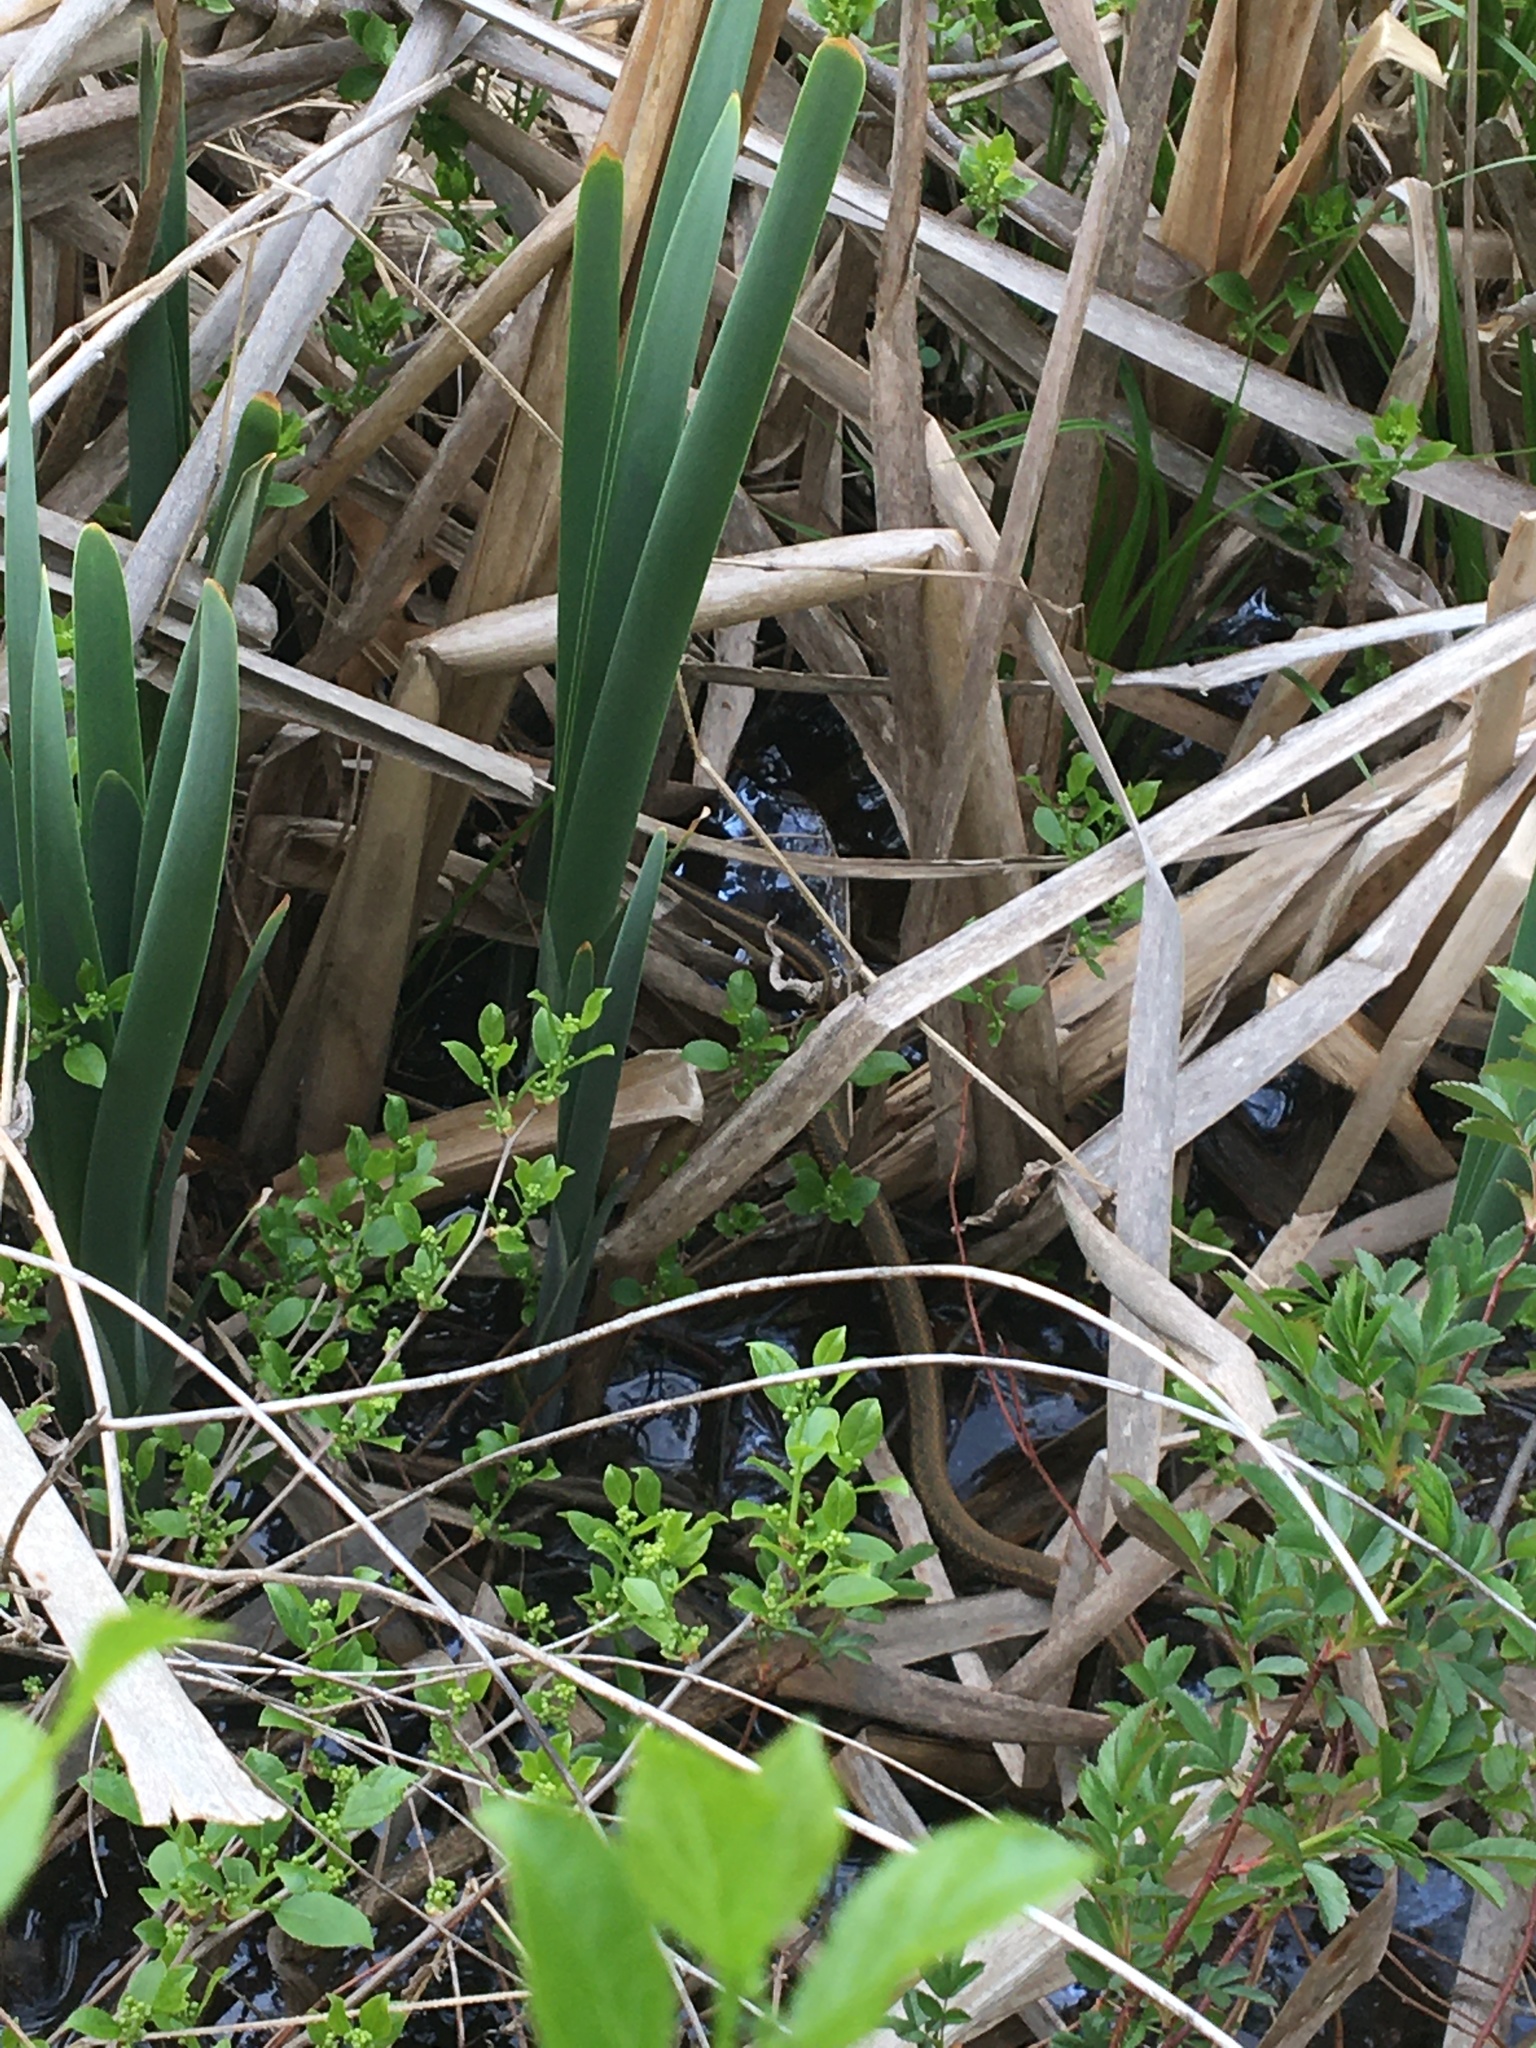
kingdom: Animalia
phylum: Chordata
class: Squamata
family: Colubridae
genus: Thamnophis
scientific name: Thamnophis sirtalis
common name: Common garter snake
